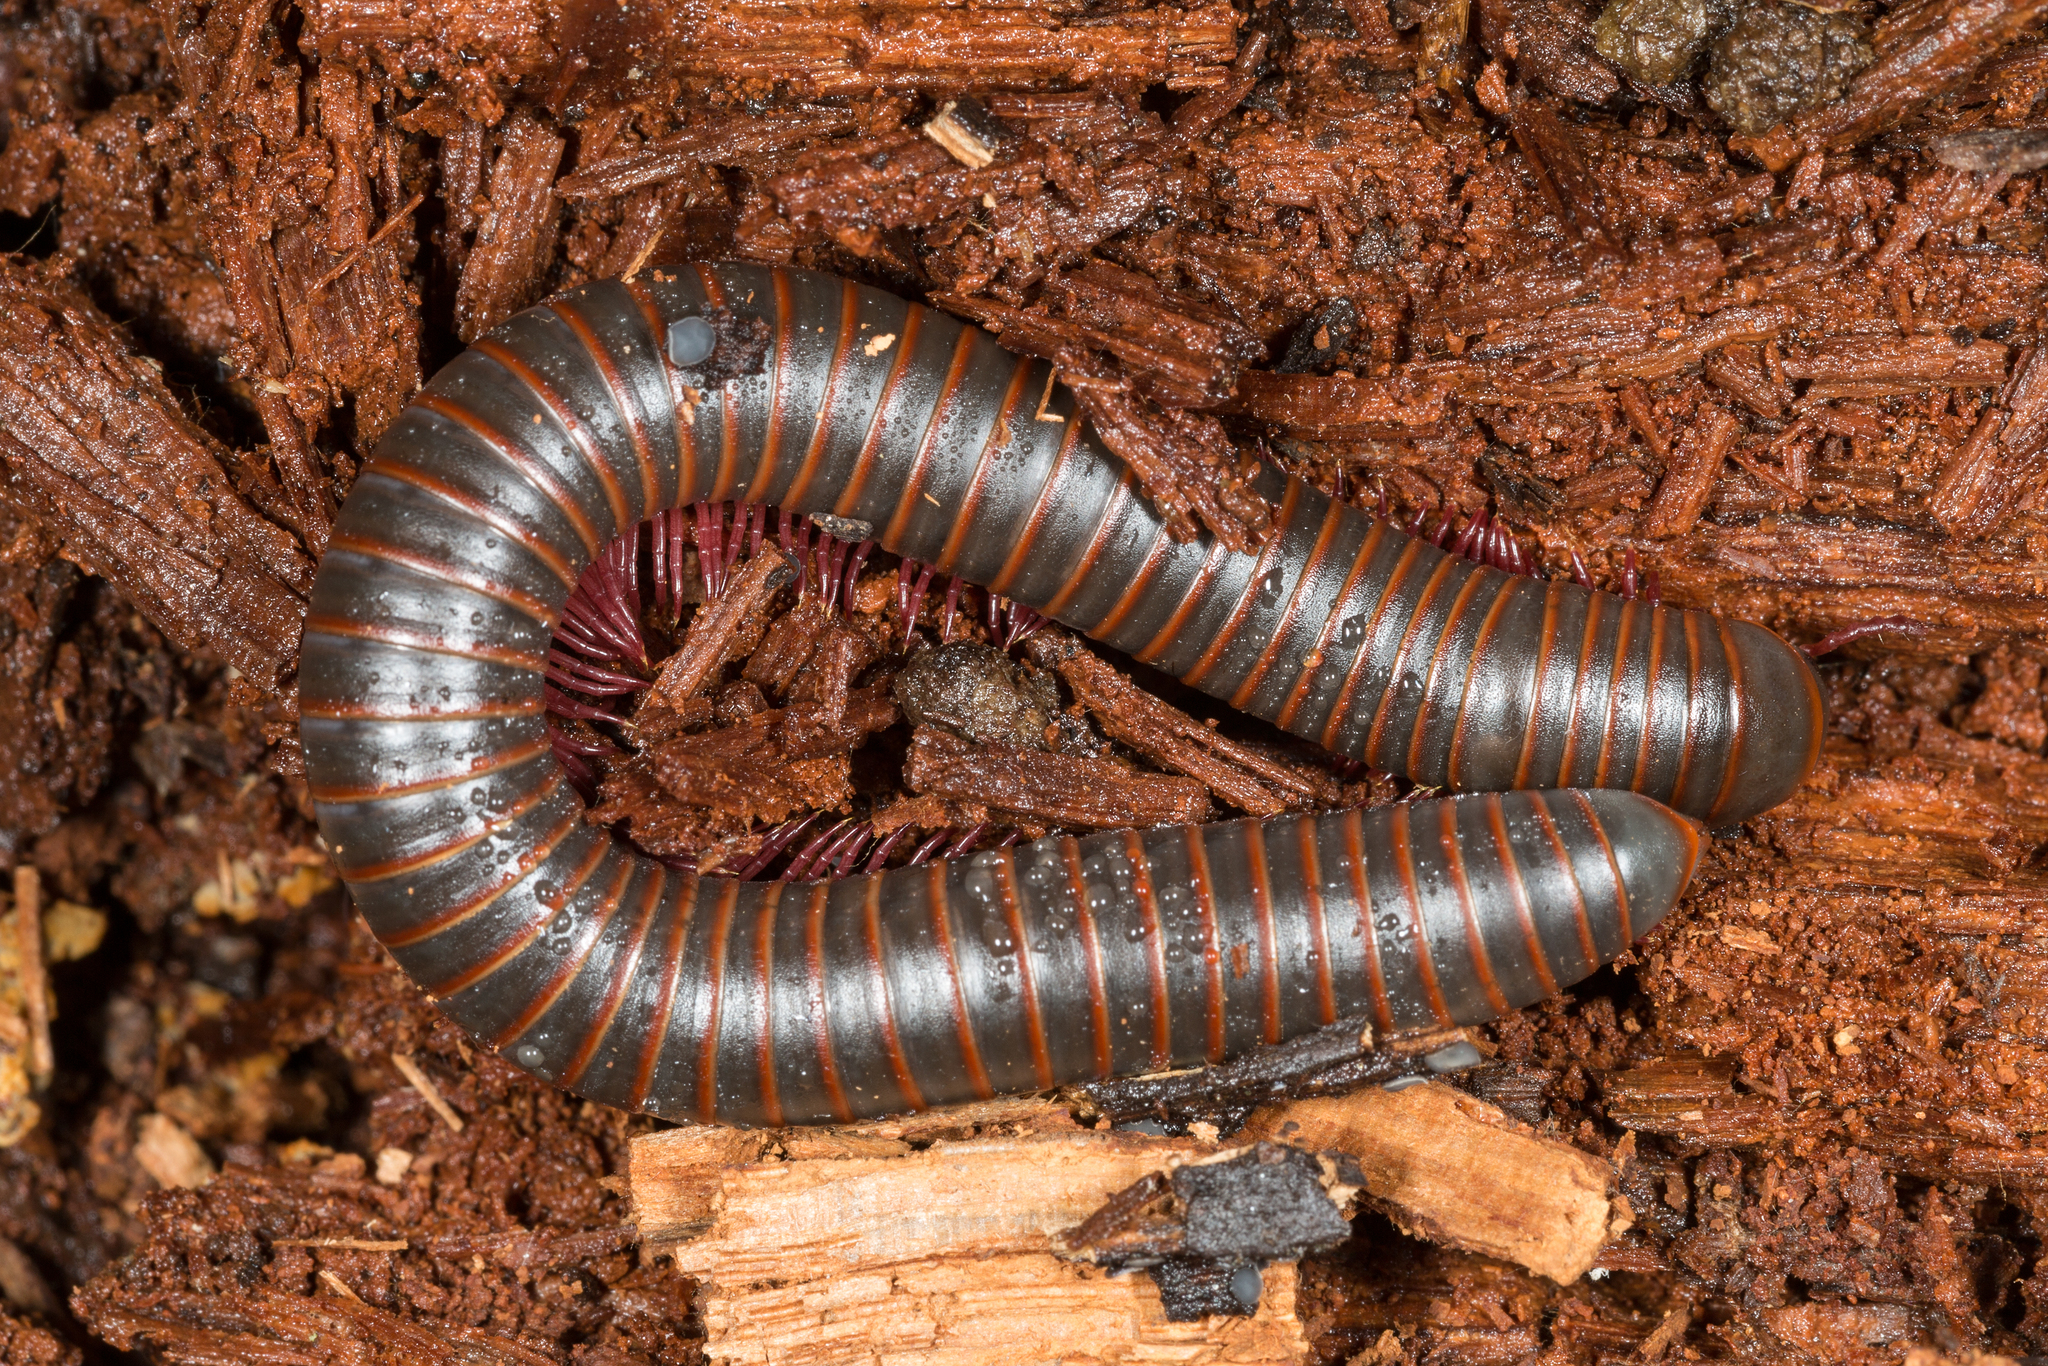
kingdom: Animalia
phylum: Arthropoda
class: Diplopoda
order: Spirobolida
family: Spirobolidae
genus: Narceus
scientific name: Narceus
